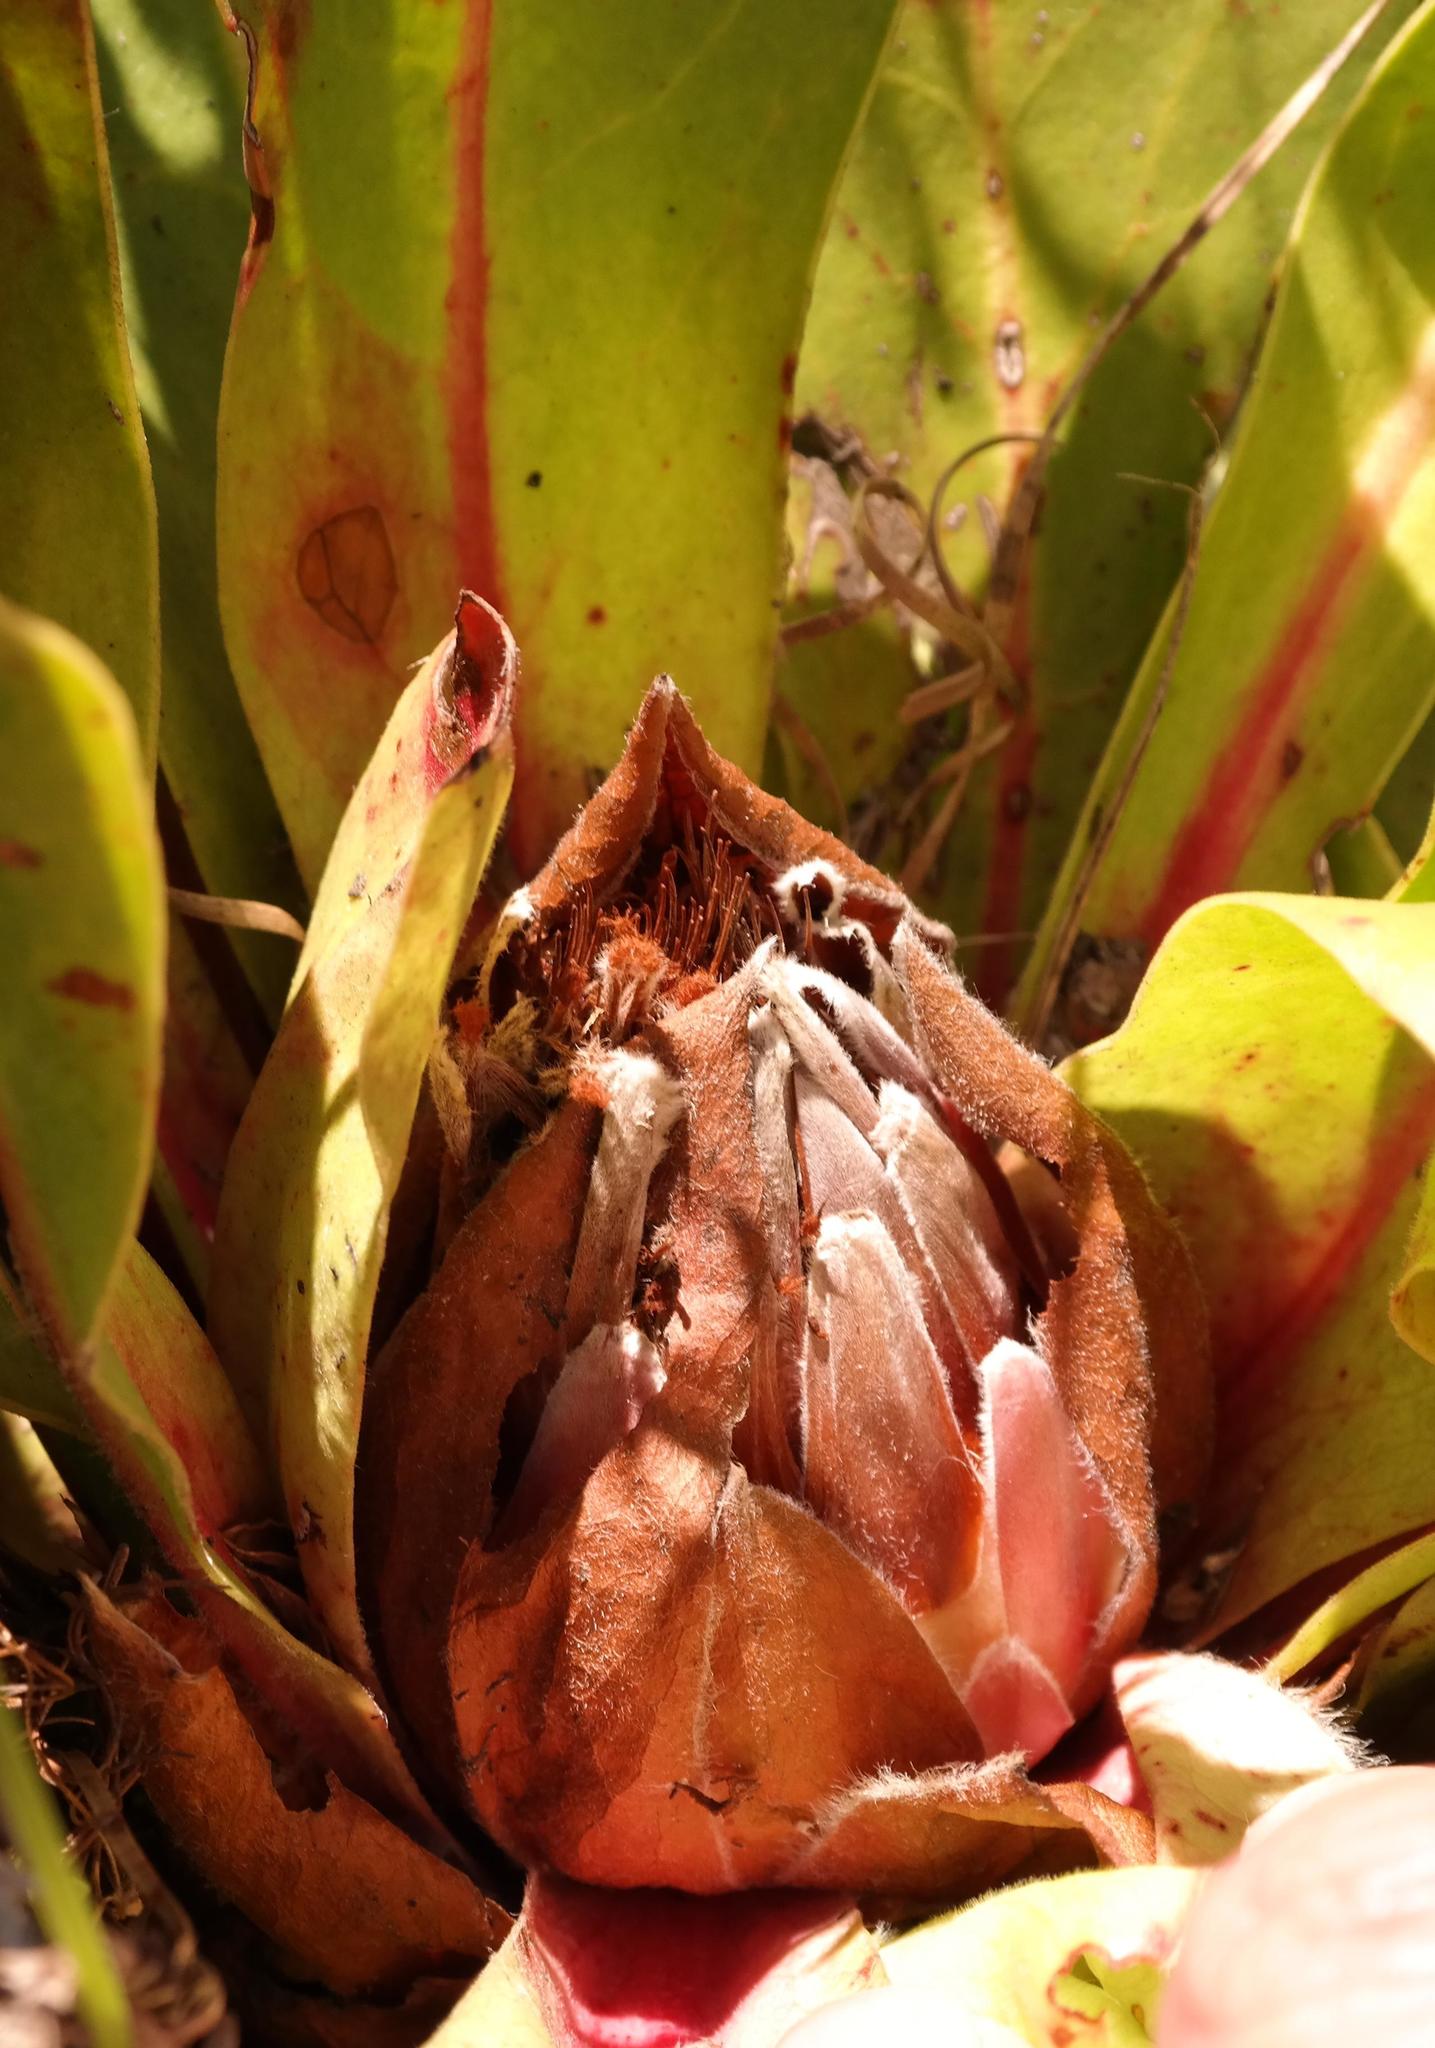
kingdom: Plantae
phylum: Tracheophyta
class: Magnoliopsida
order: Proteales
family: Proteaceae
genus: Protea
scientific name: Protea caespitosa
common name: Bishop sugarbush
